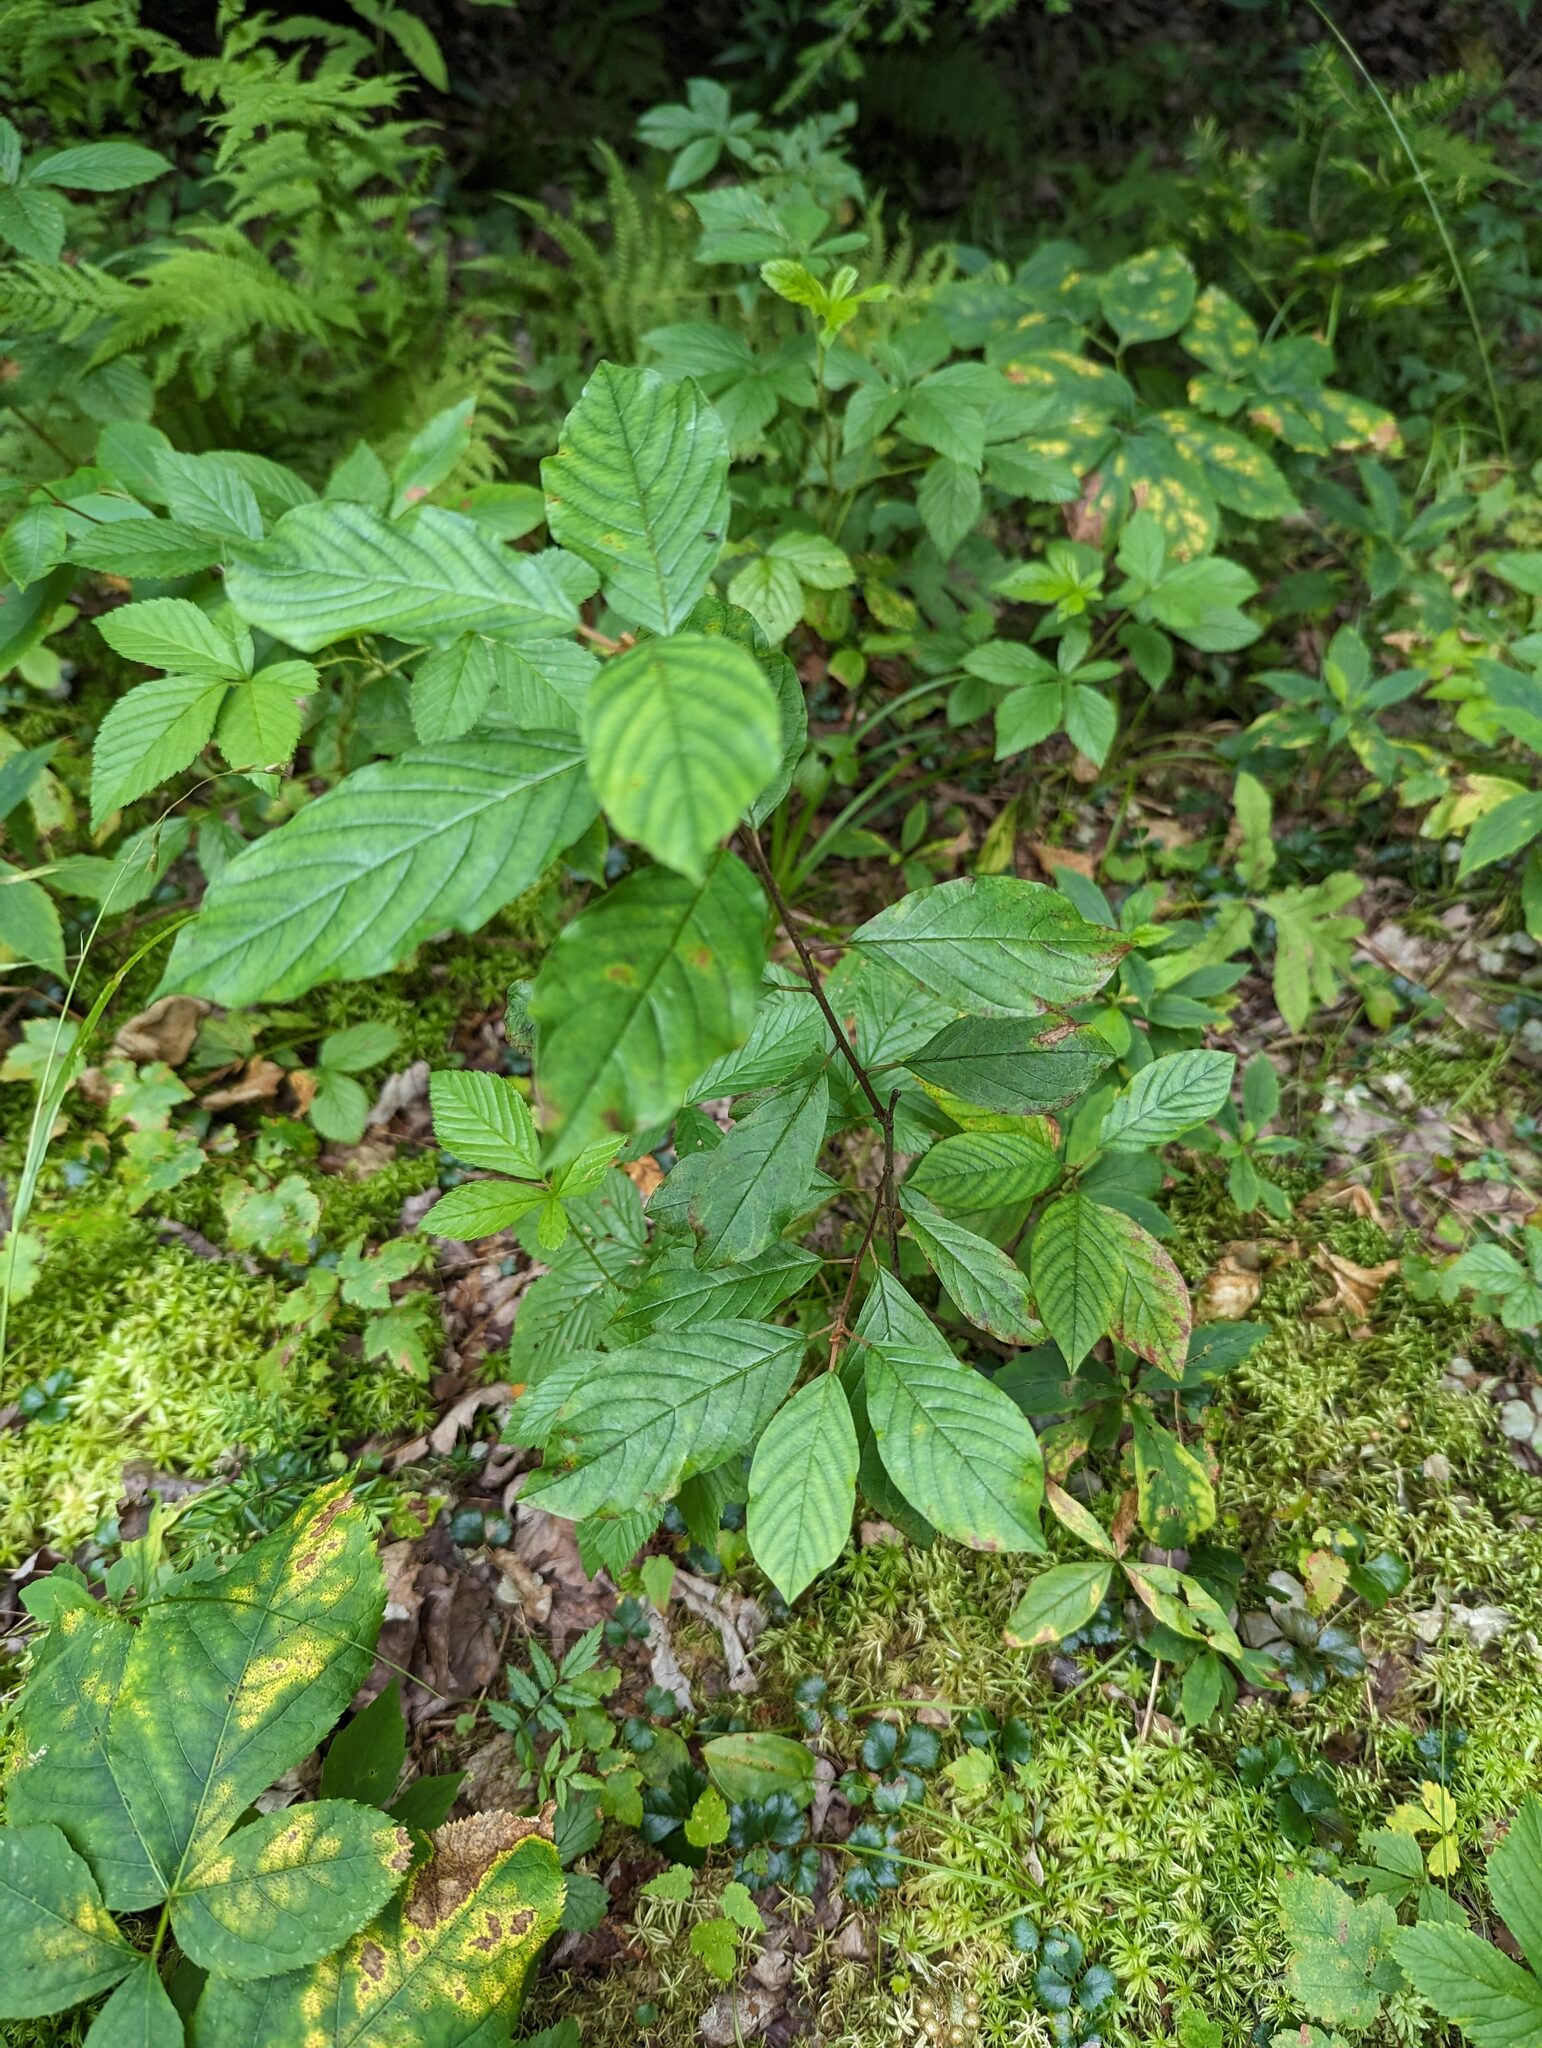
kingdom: Plantae
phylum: Tracheophyta
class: Magnoliopsida
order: Rosales
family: Rhamnaceae
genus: Frangula
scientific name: Frangula alnus
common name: Alder buckthorn
